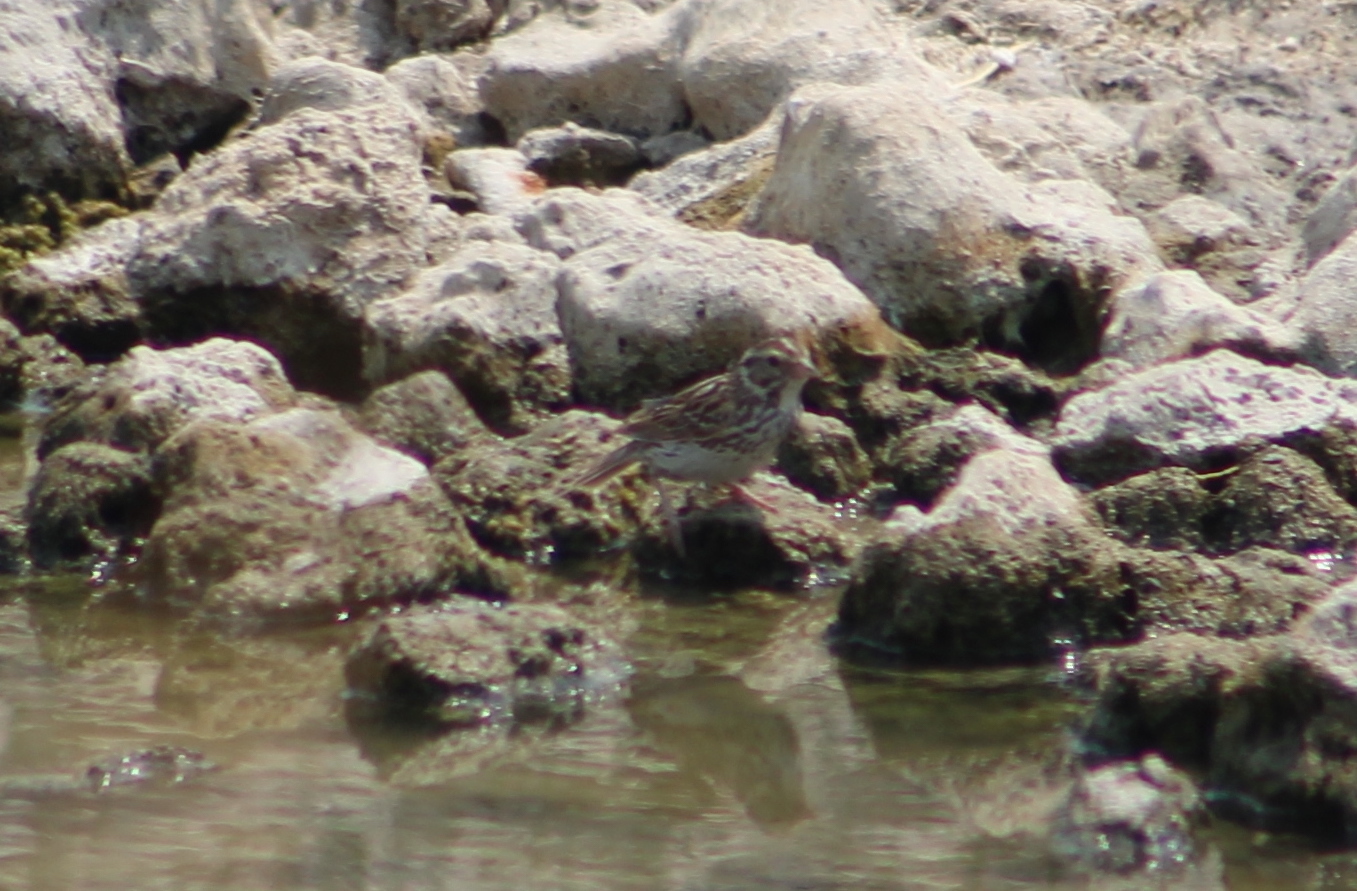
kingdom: Animalia
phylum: Chordata
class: Aves
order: Passeriformes
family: Passerellidae
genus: Passerculus
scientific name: Passerculus sandwichensis
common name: Savannah sparrow
